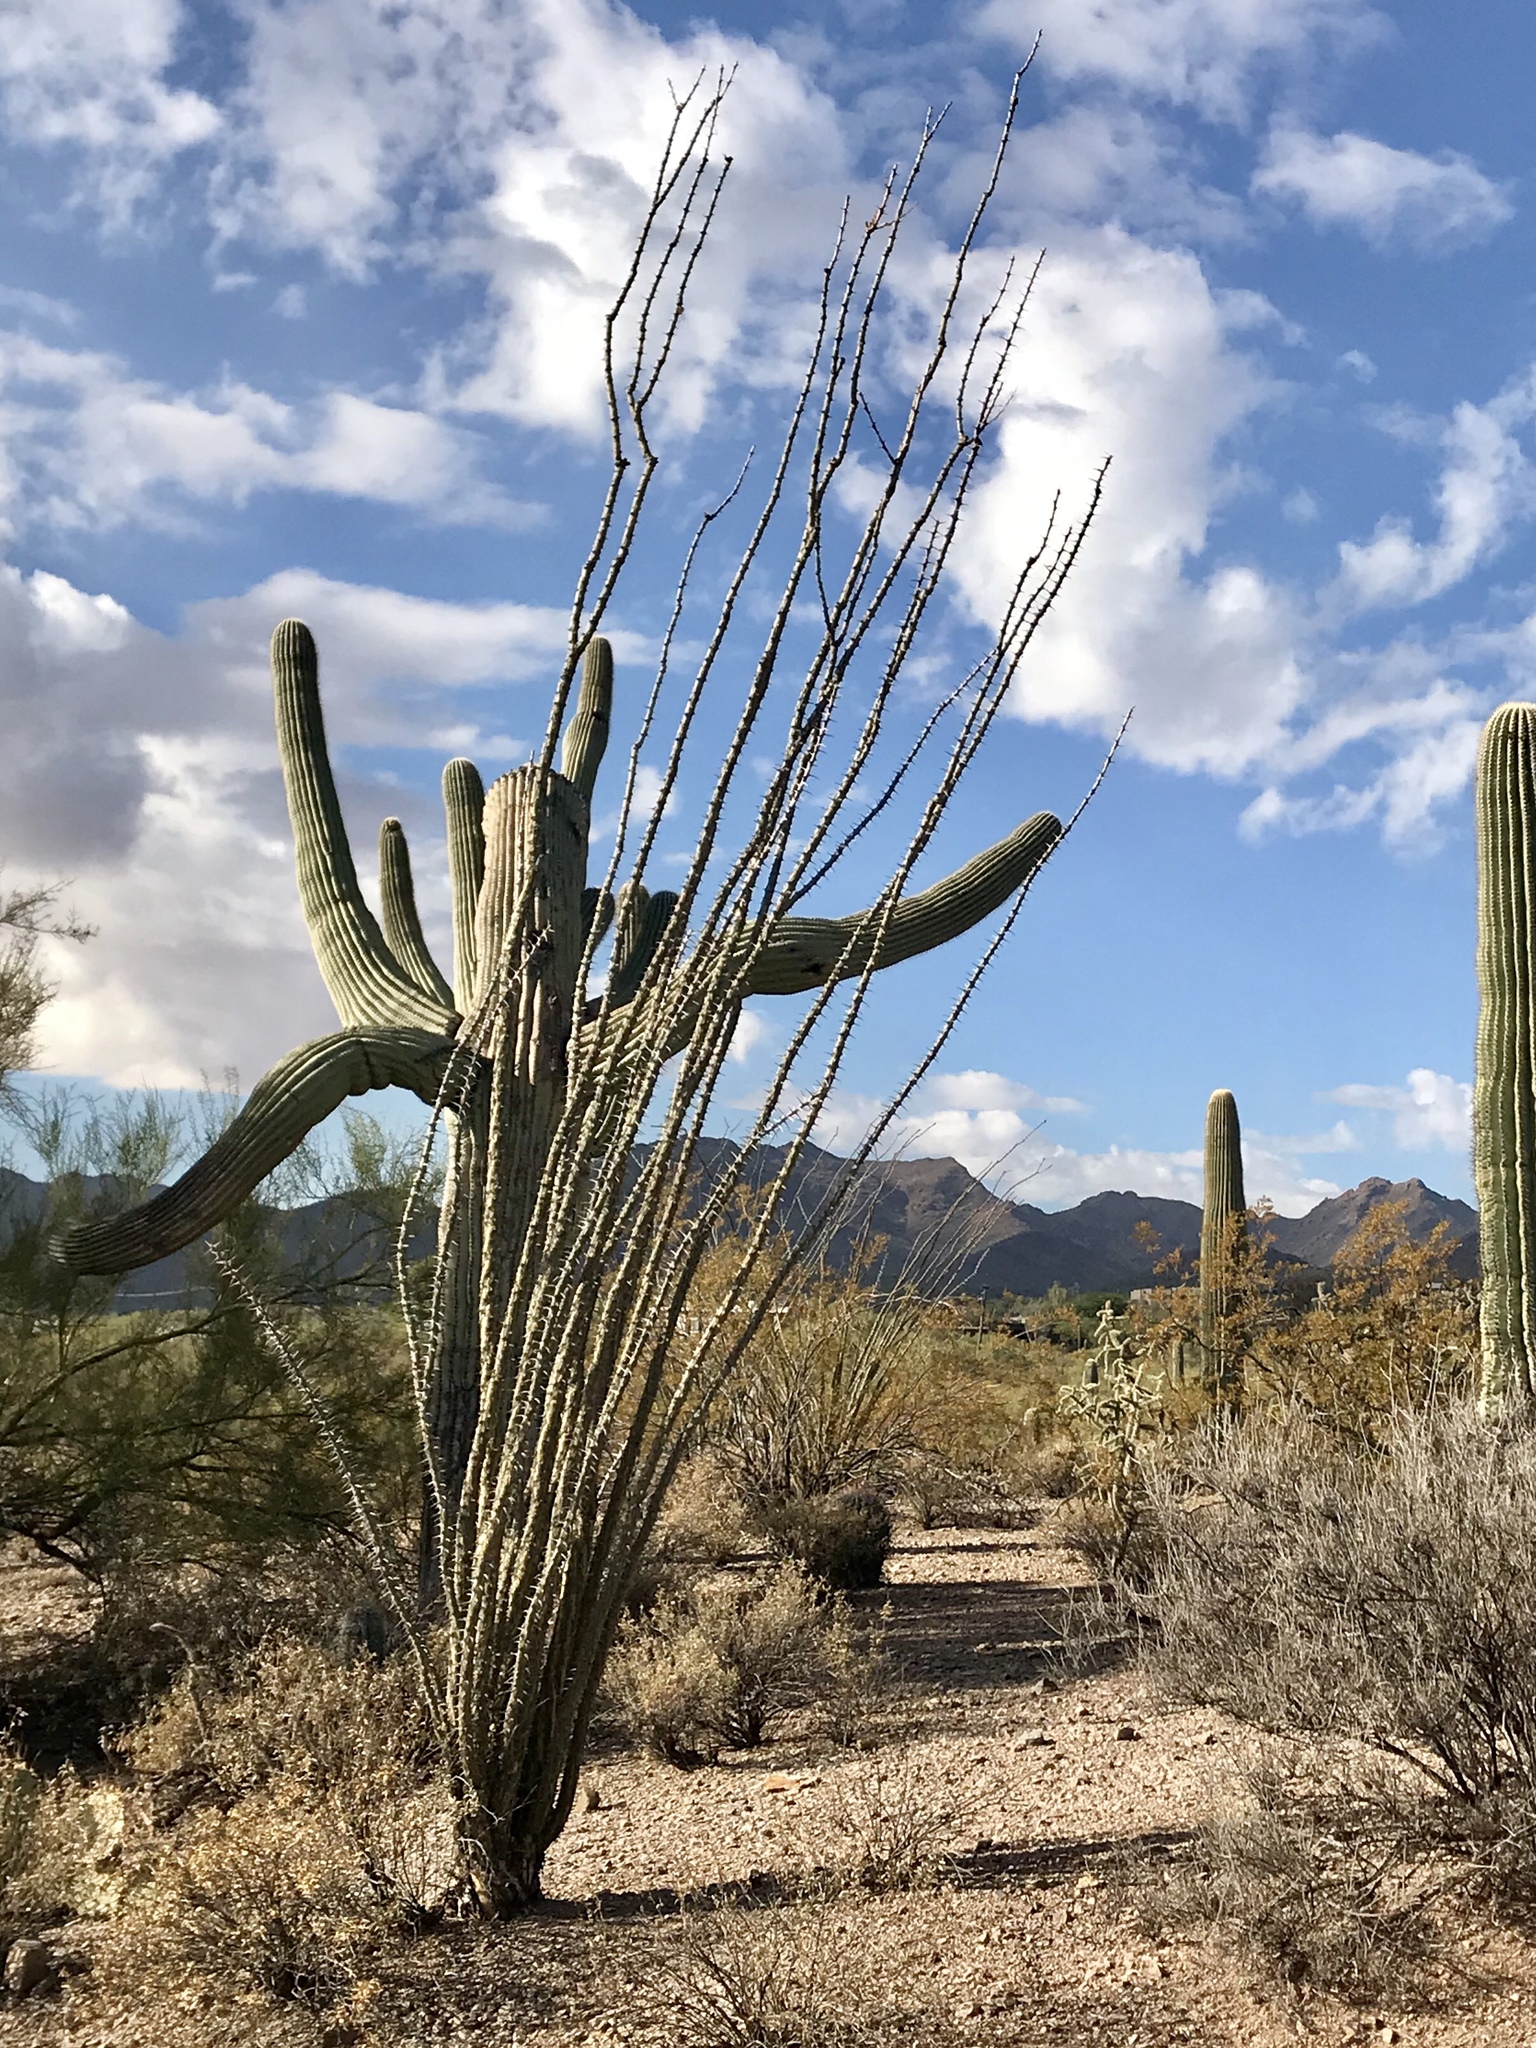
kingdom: Plantae
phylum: Tracheophyta
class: Magnoliopsida
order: Ericales
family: Fouquieriaceae
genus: Fouquieria
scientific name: Fouquieria splendens
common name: Vine-cactus
